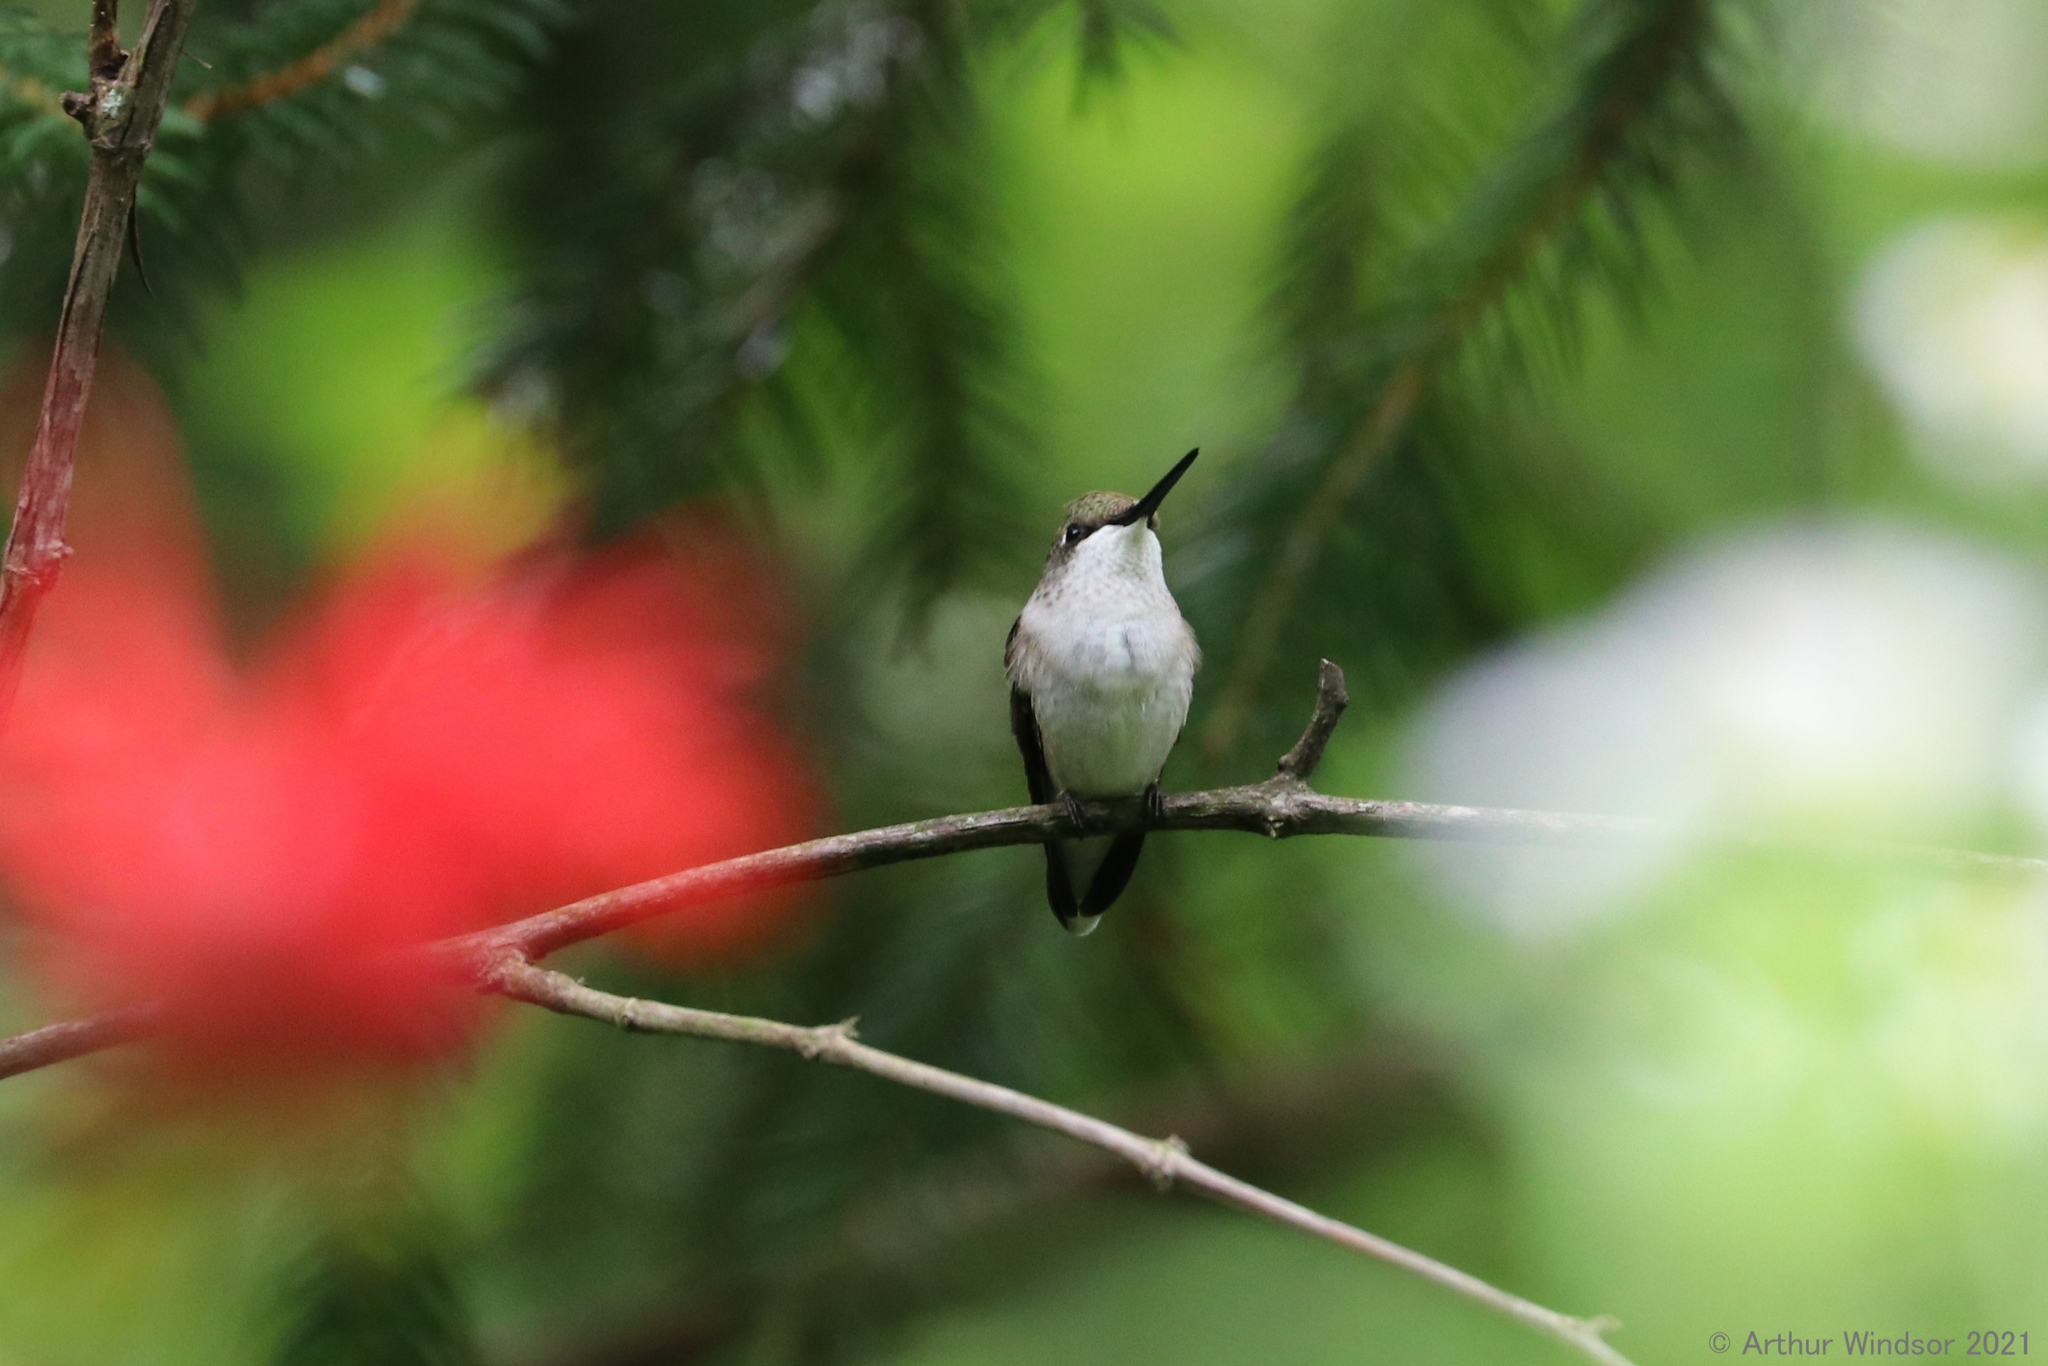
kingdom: Animalia
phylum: Chordata
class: Aves
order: Apodiformes
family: Trochilidae
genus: Archilochus
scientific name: Archilochus colubris
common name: Ruby-throated hummingbird
